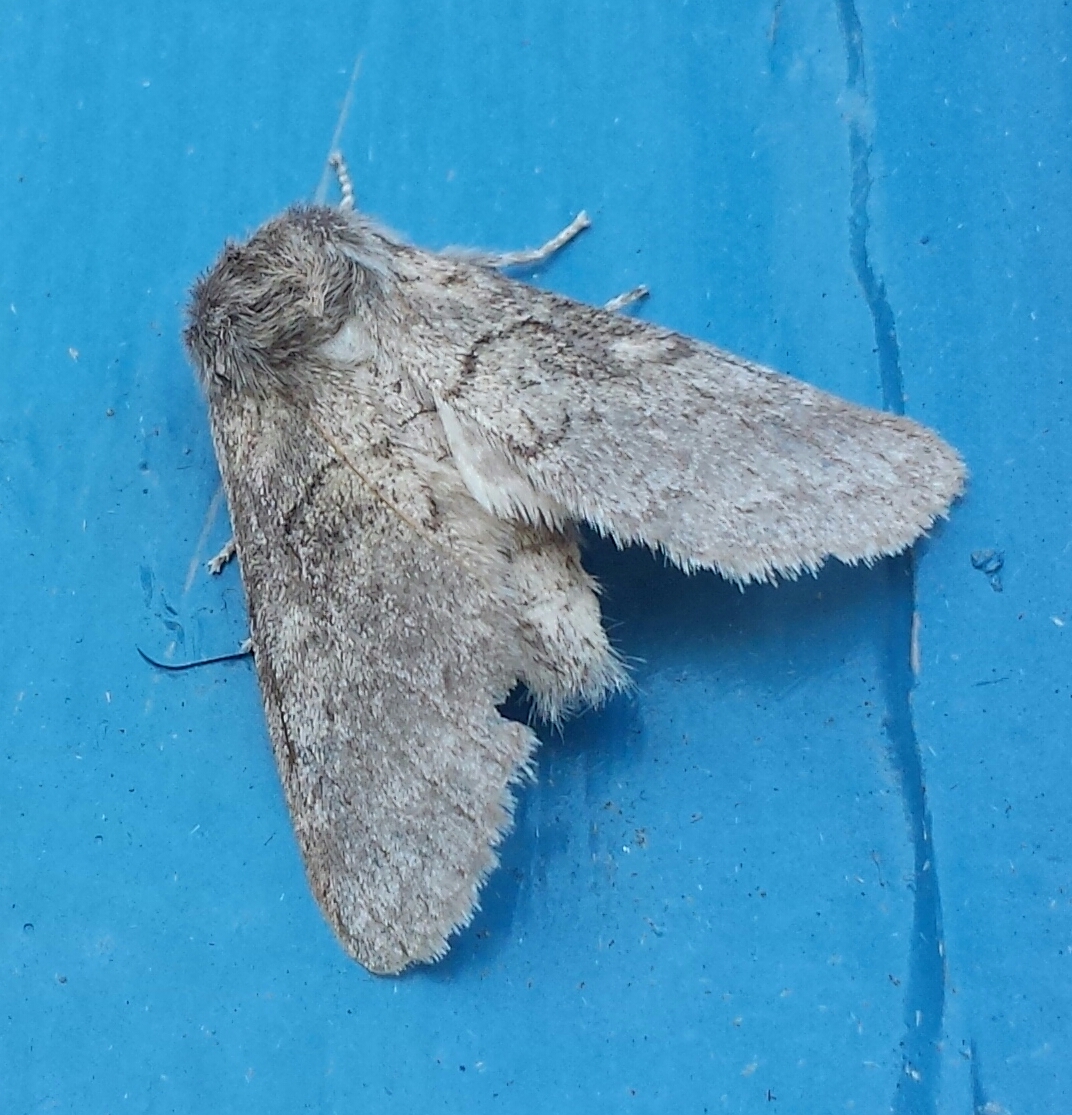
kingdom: Animalia
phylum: Arthropoda
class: Insecta
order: Lepidoptera
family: Notodontidae
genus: Gluphisia
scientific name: Gluphisia septentrionis
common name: Common gluphisia
